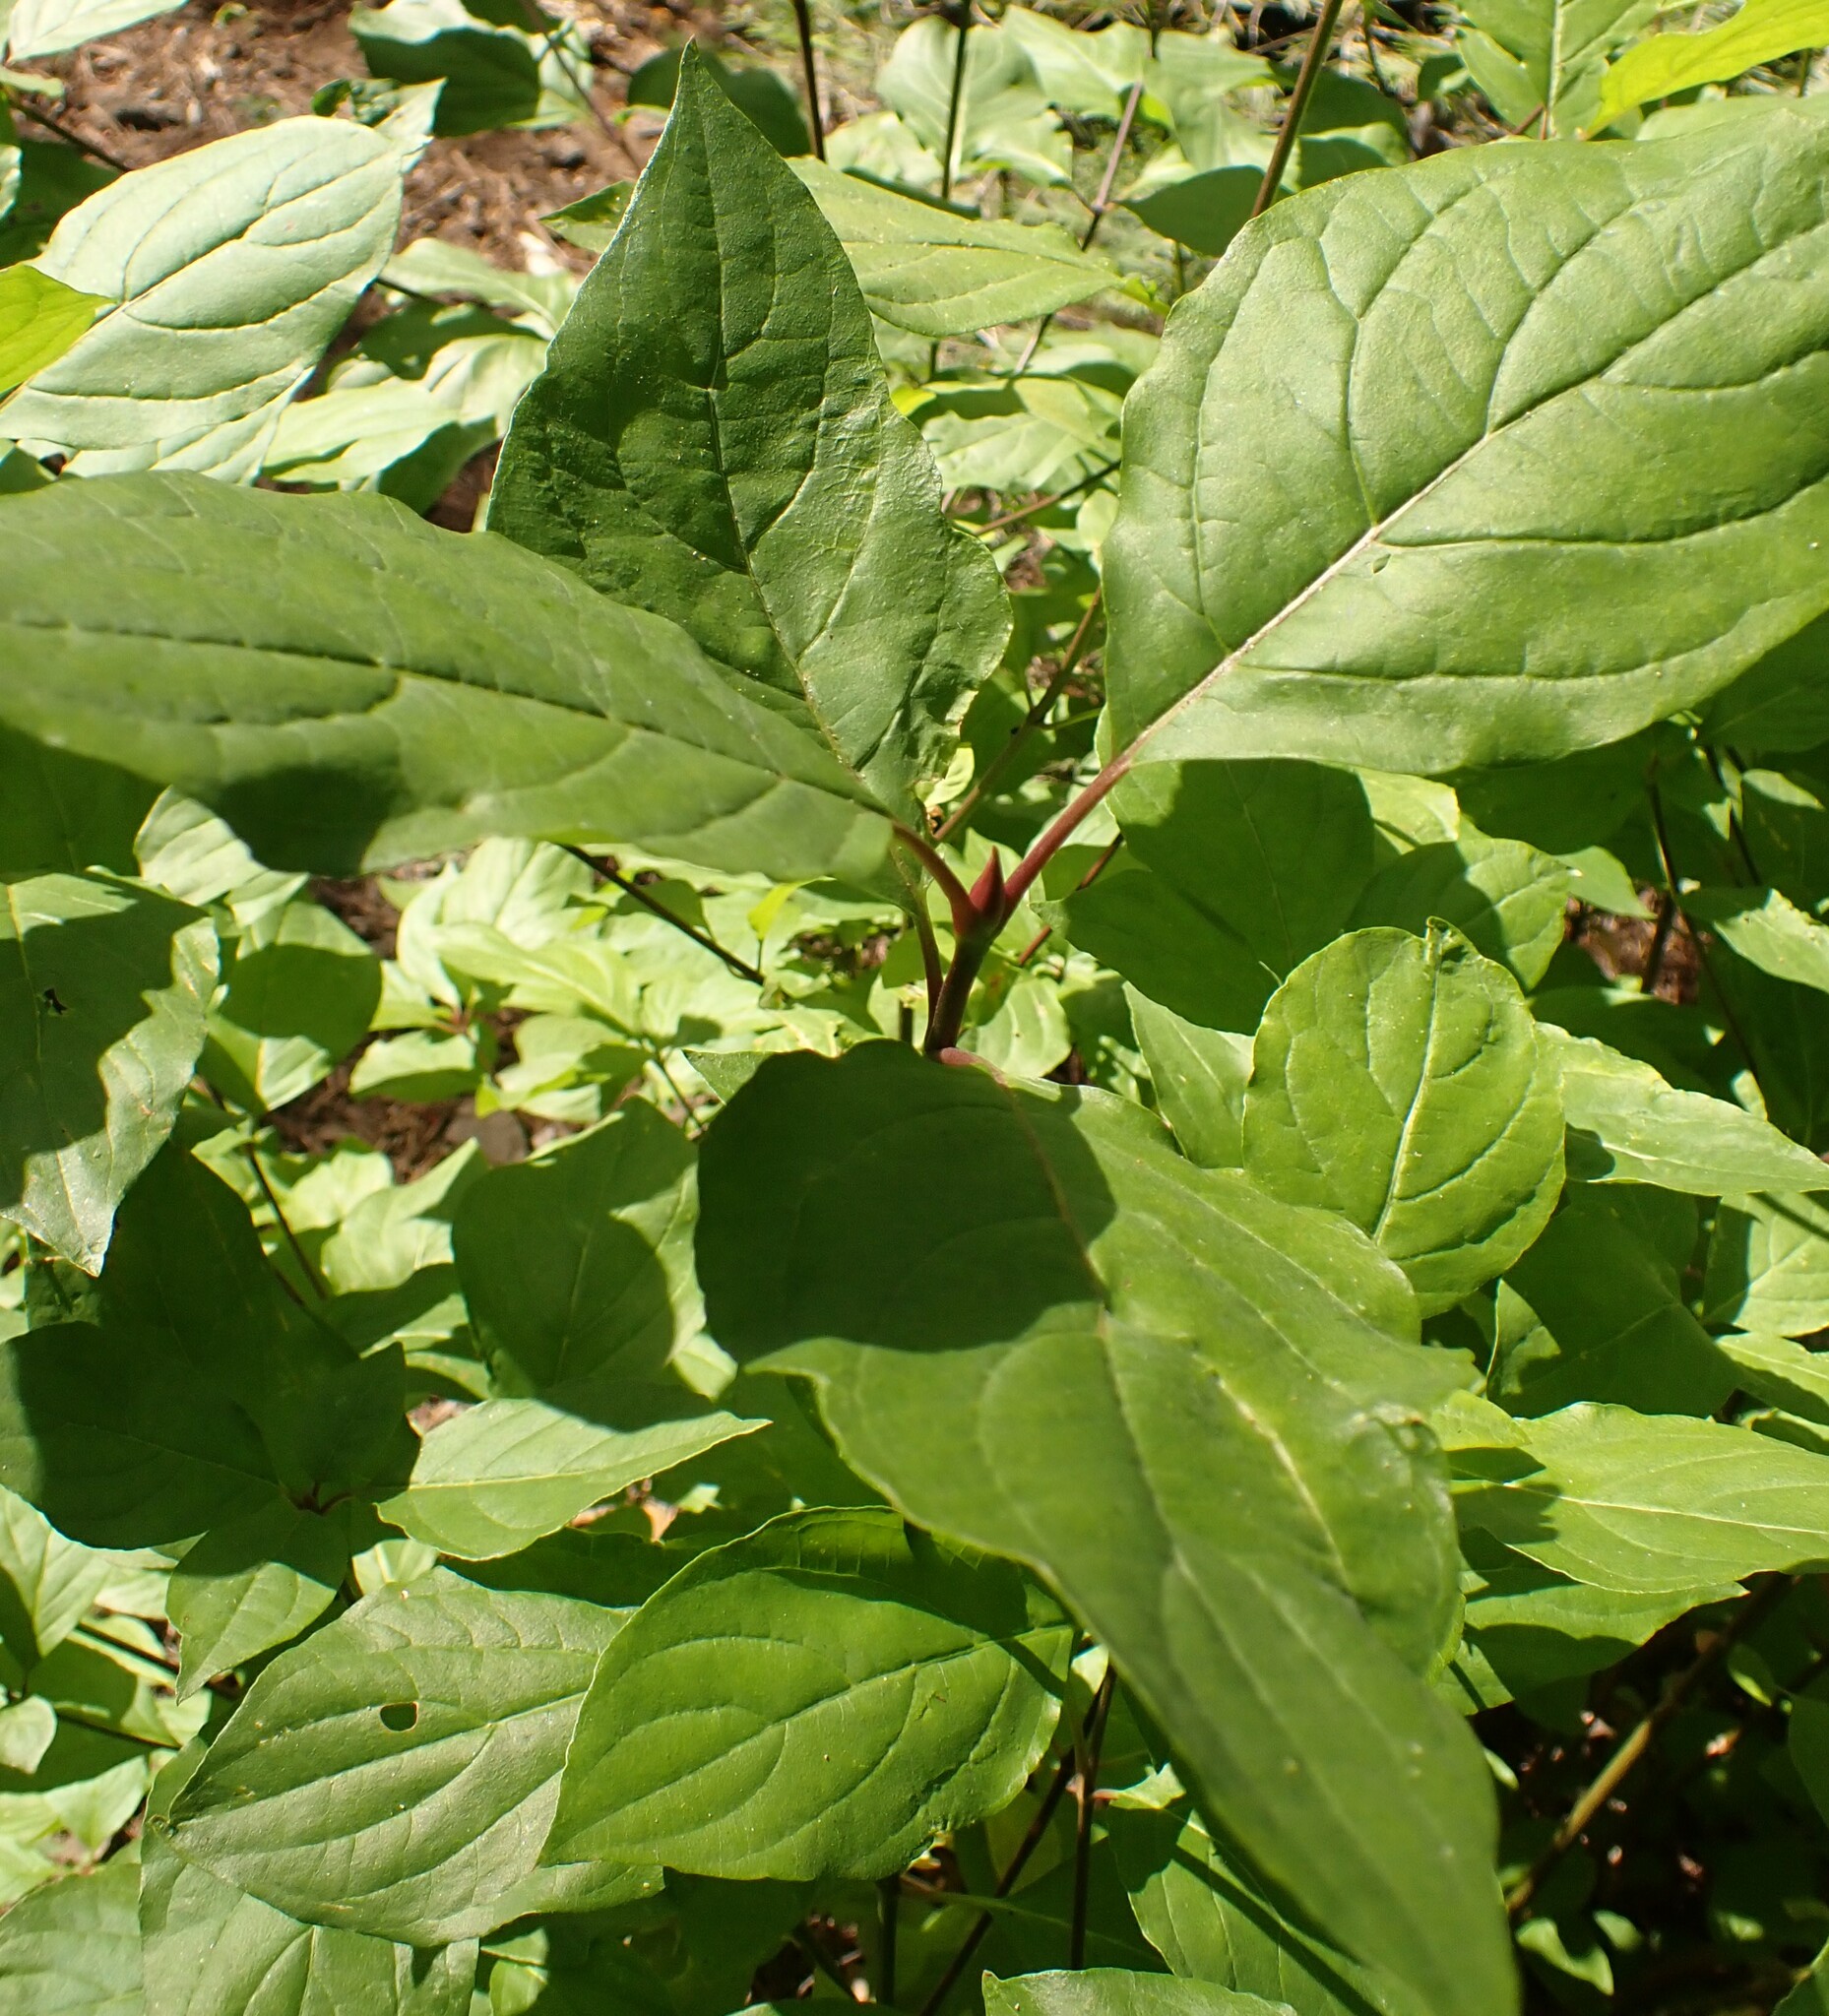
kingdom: Plantae
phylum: Tracheophyta
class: Magnoliopsida
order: Cornales
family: Cornaceae
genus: Cornus
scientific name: Cornus nuttallii
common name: Pacific dogwood
